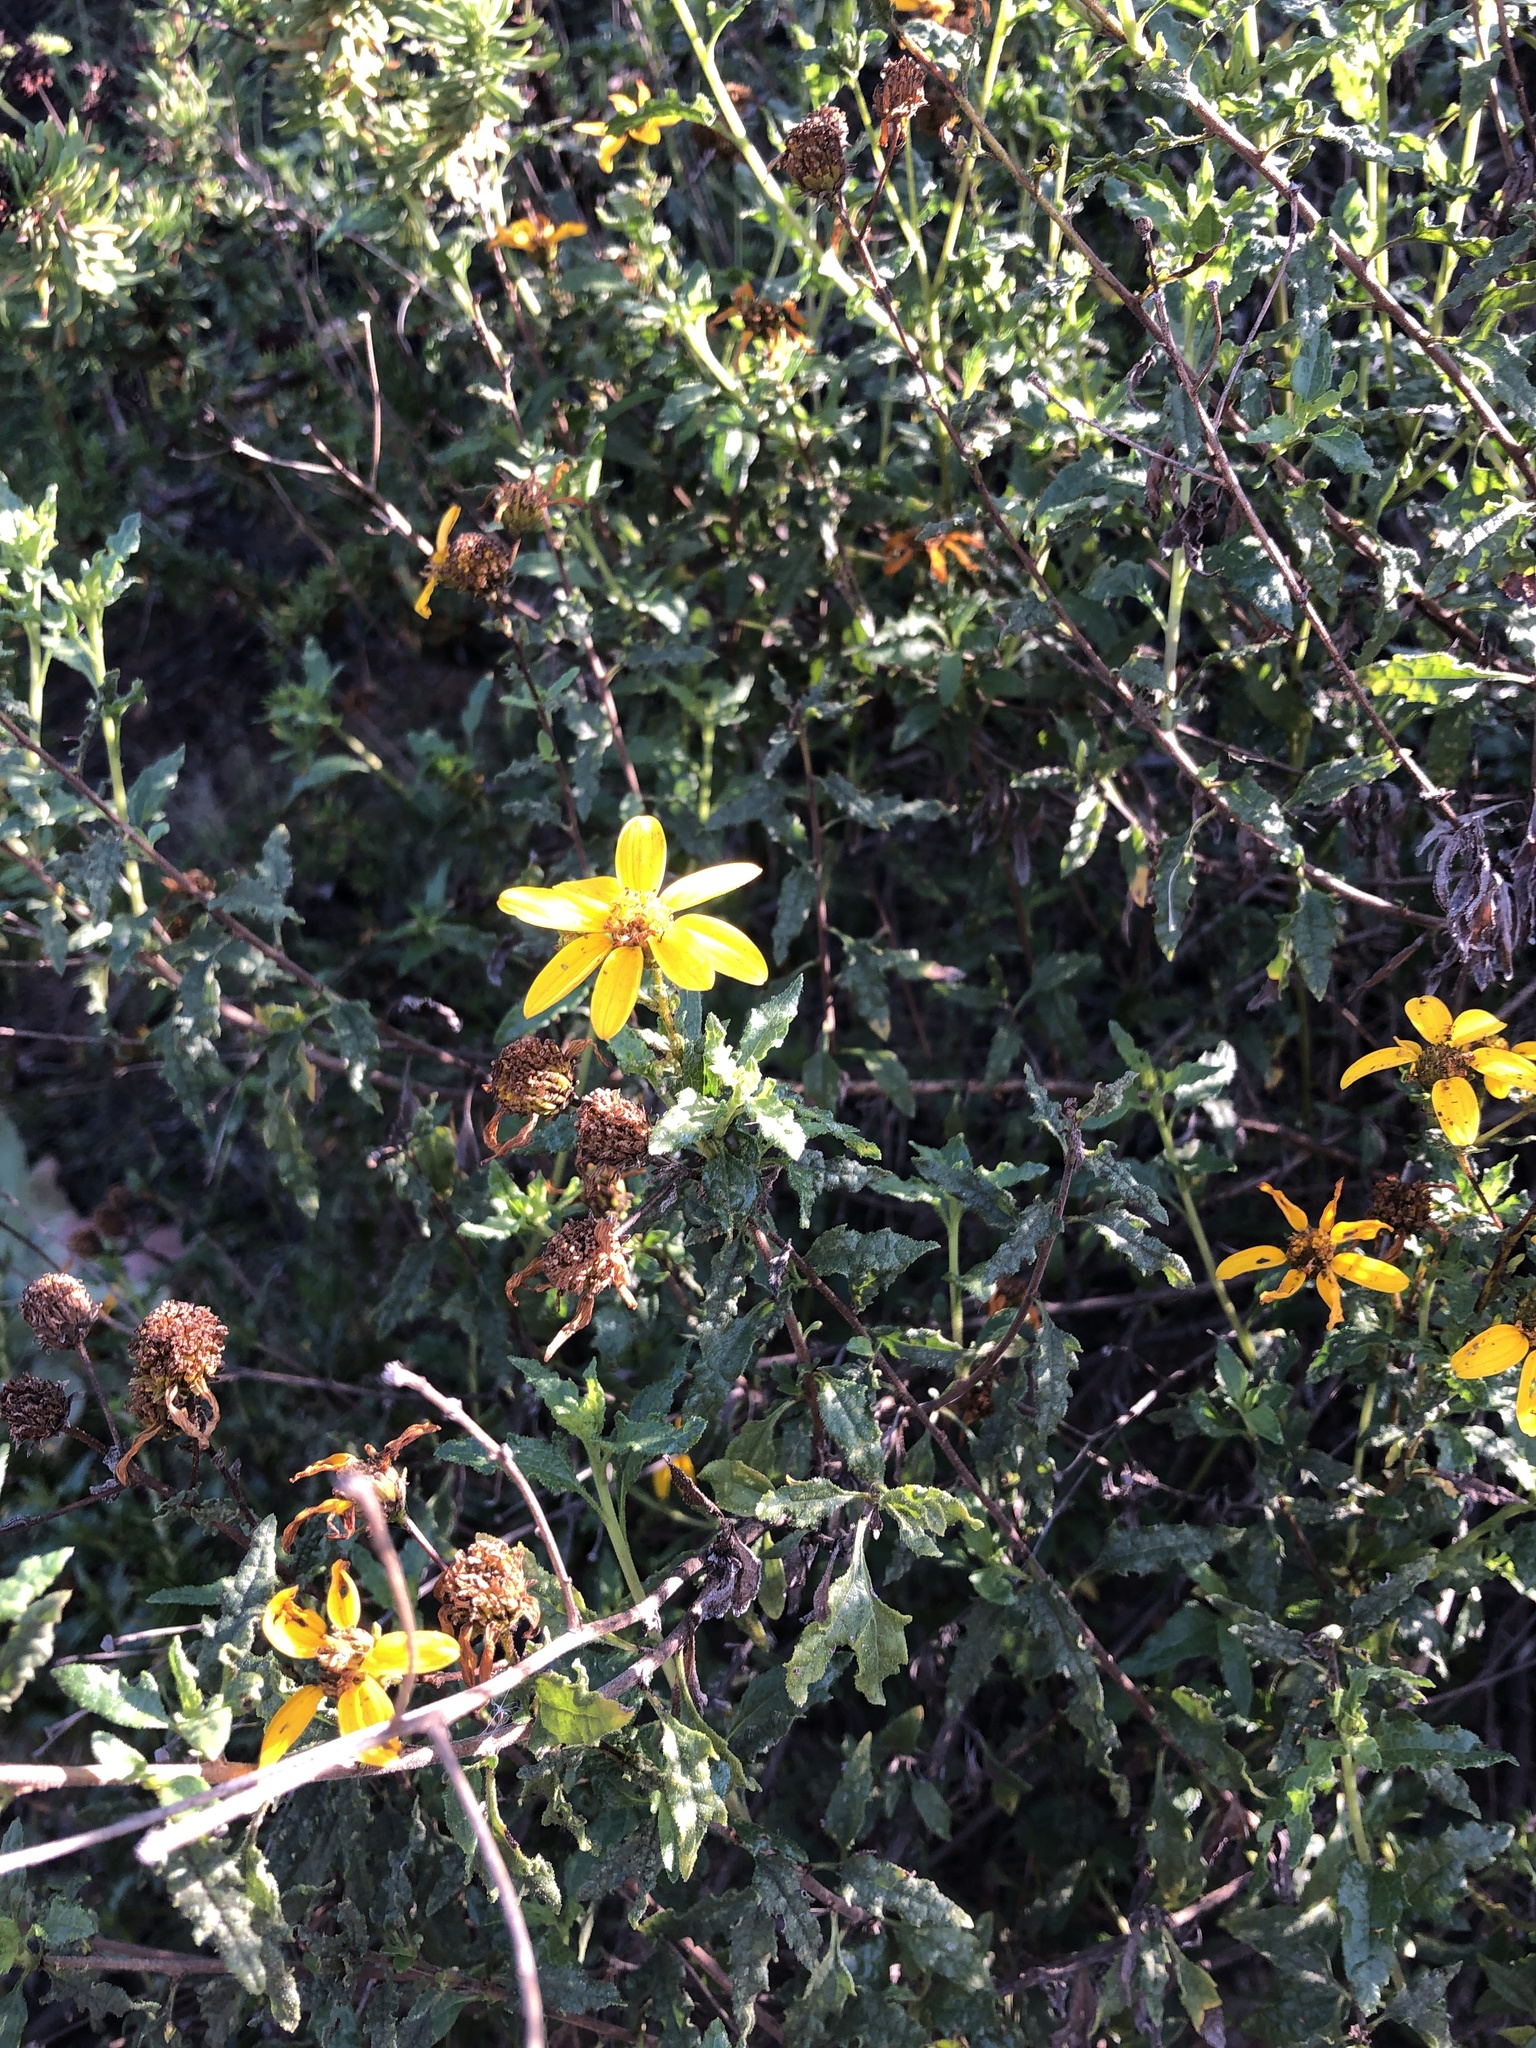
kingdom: Plantae
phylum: Tracheophyta
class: Magnoliopsida
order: Asterales
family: Asteraceae
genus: Bahiopsis
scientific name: Bahiopsis laciniata
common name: San diego county viguiera
